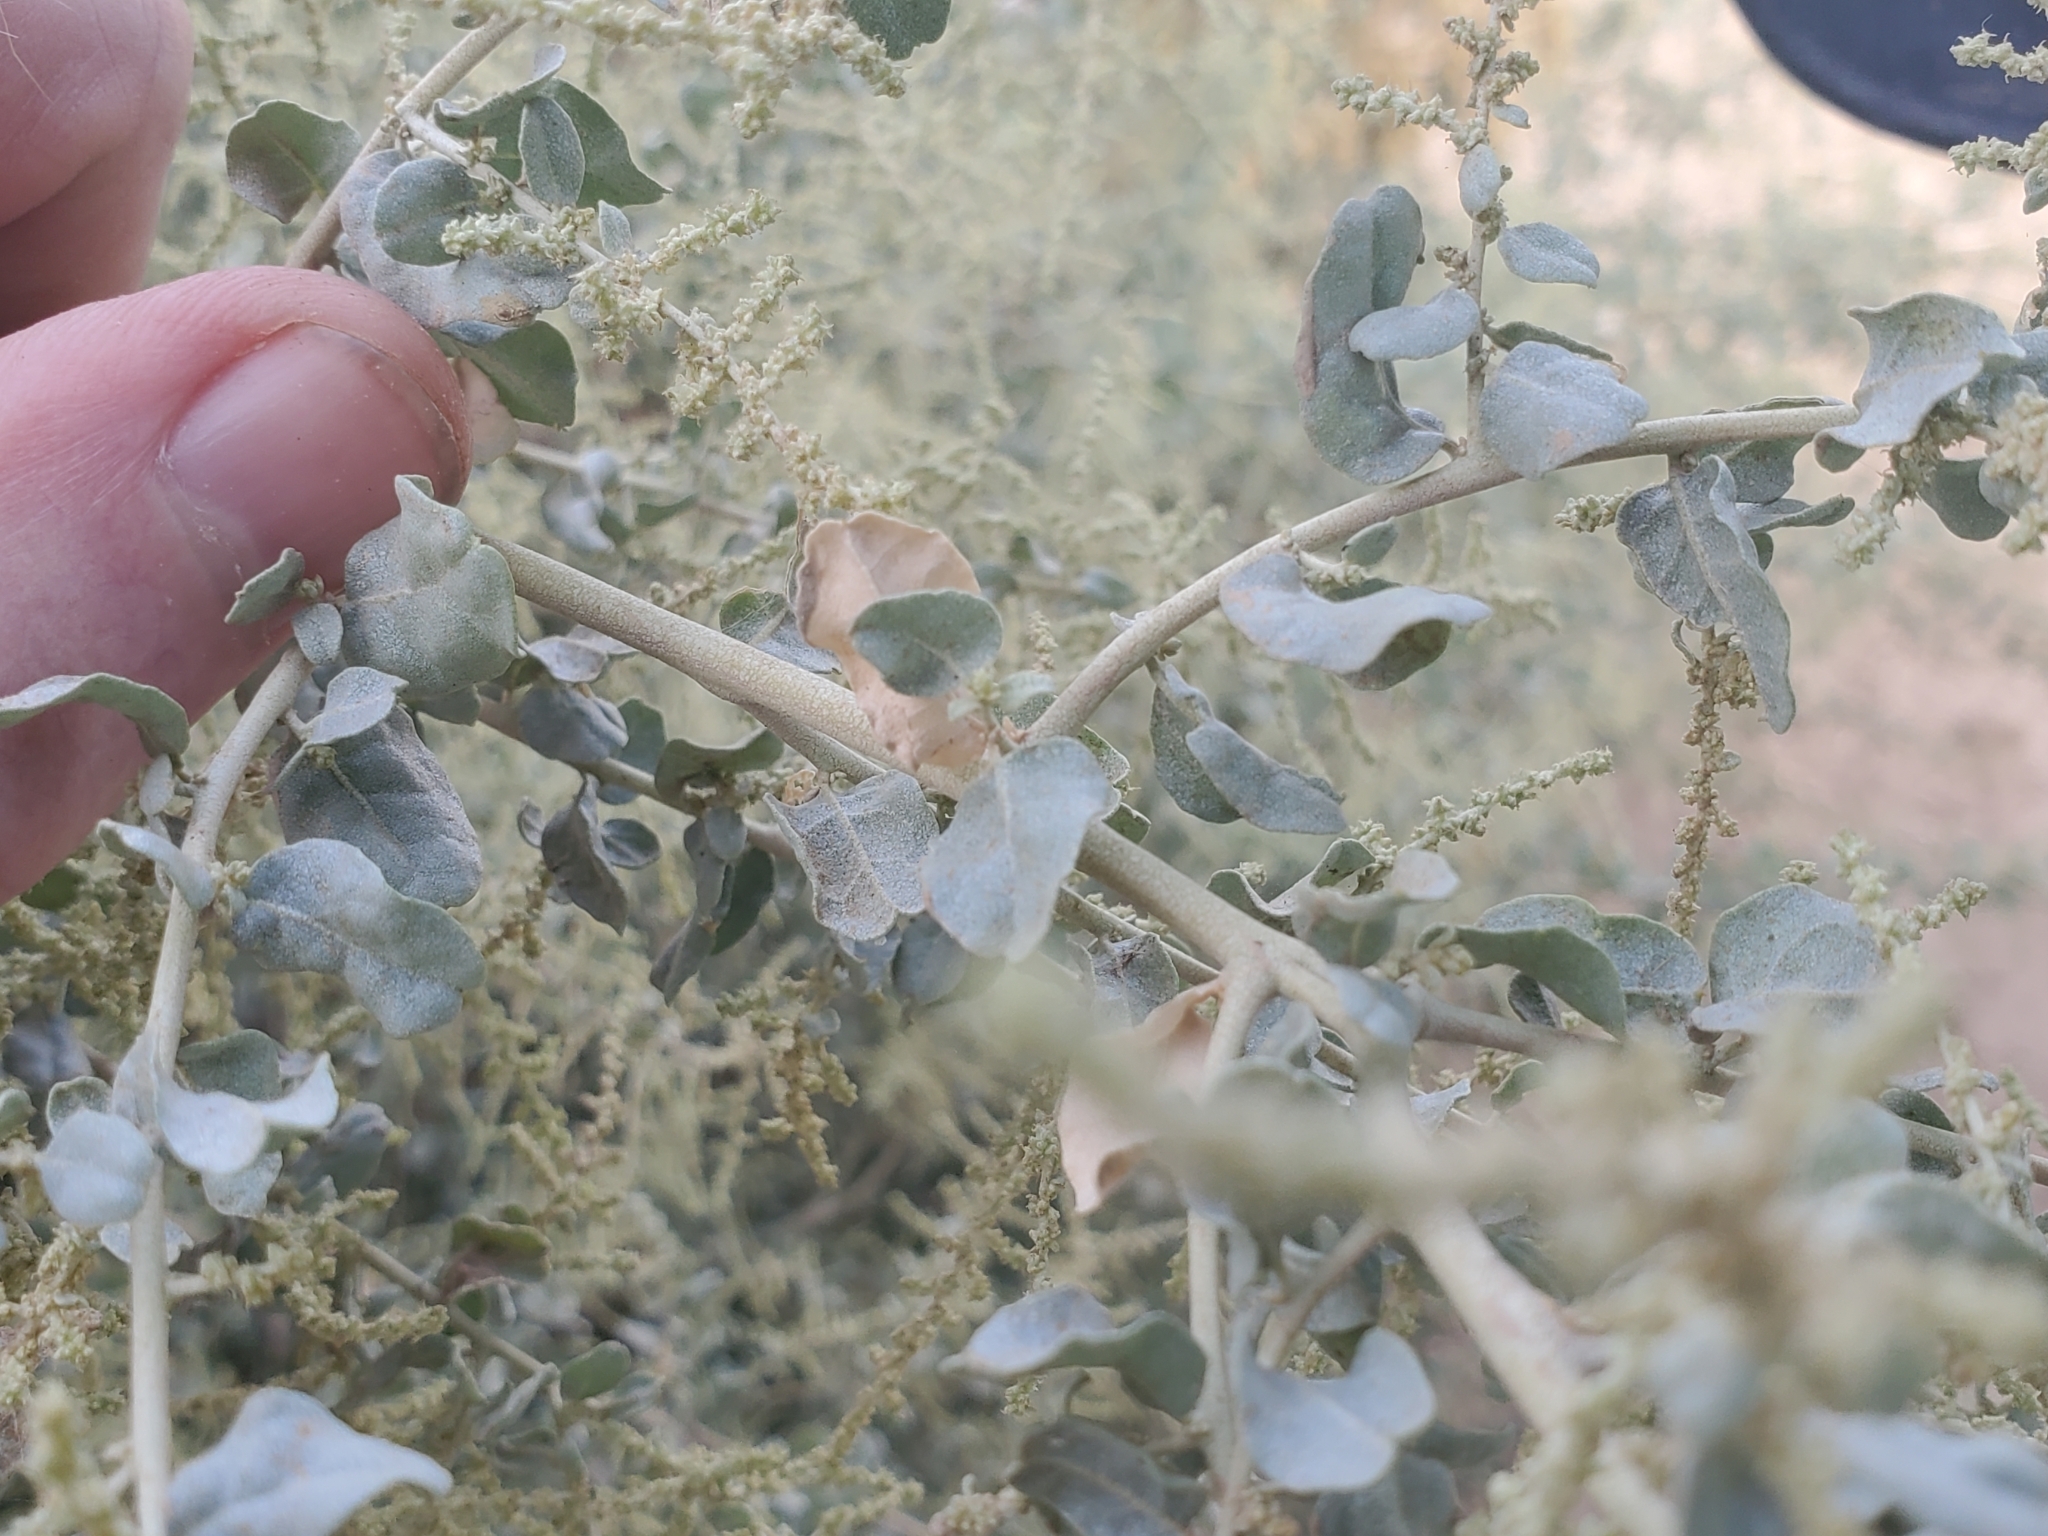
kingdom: Plantae
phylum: Tracheophyta
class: Magnoliopsida
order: Caryophyllales
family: Amaranthaceae
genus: Atriplex
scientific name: Atriplex lentiformis
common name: Big saltbush
